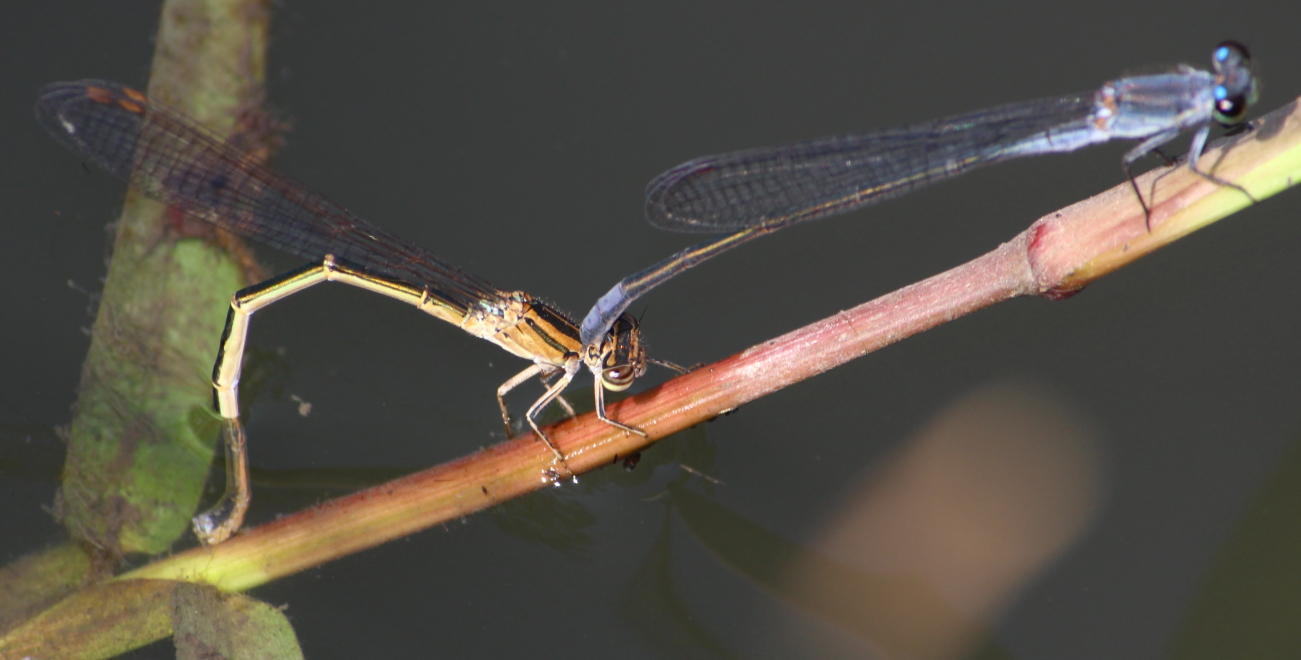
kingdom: Animalia
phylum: Arthropoda
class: Insecta
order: Odonata
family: Coenagrionidae
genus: Pseudagrion
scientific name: Pseudagrion salisburyense
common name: Slate sprite
